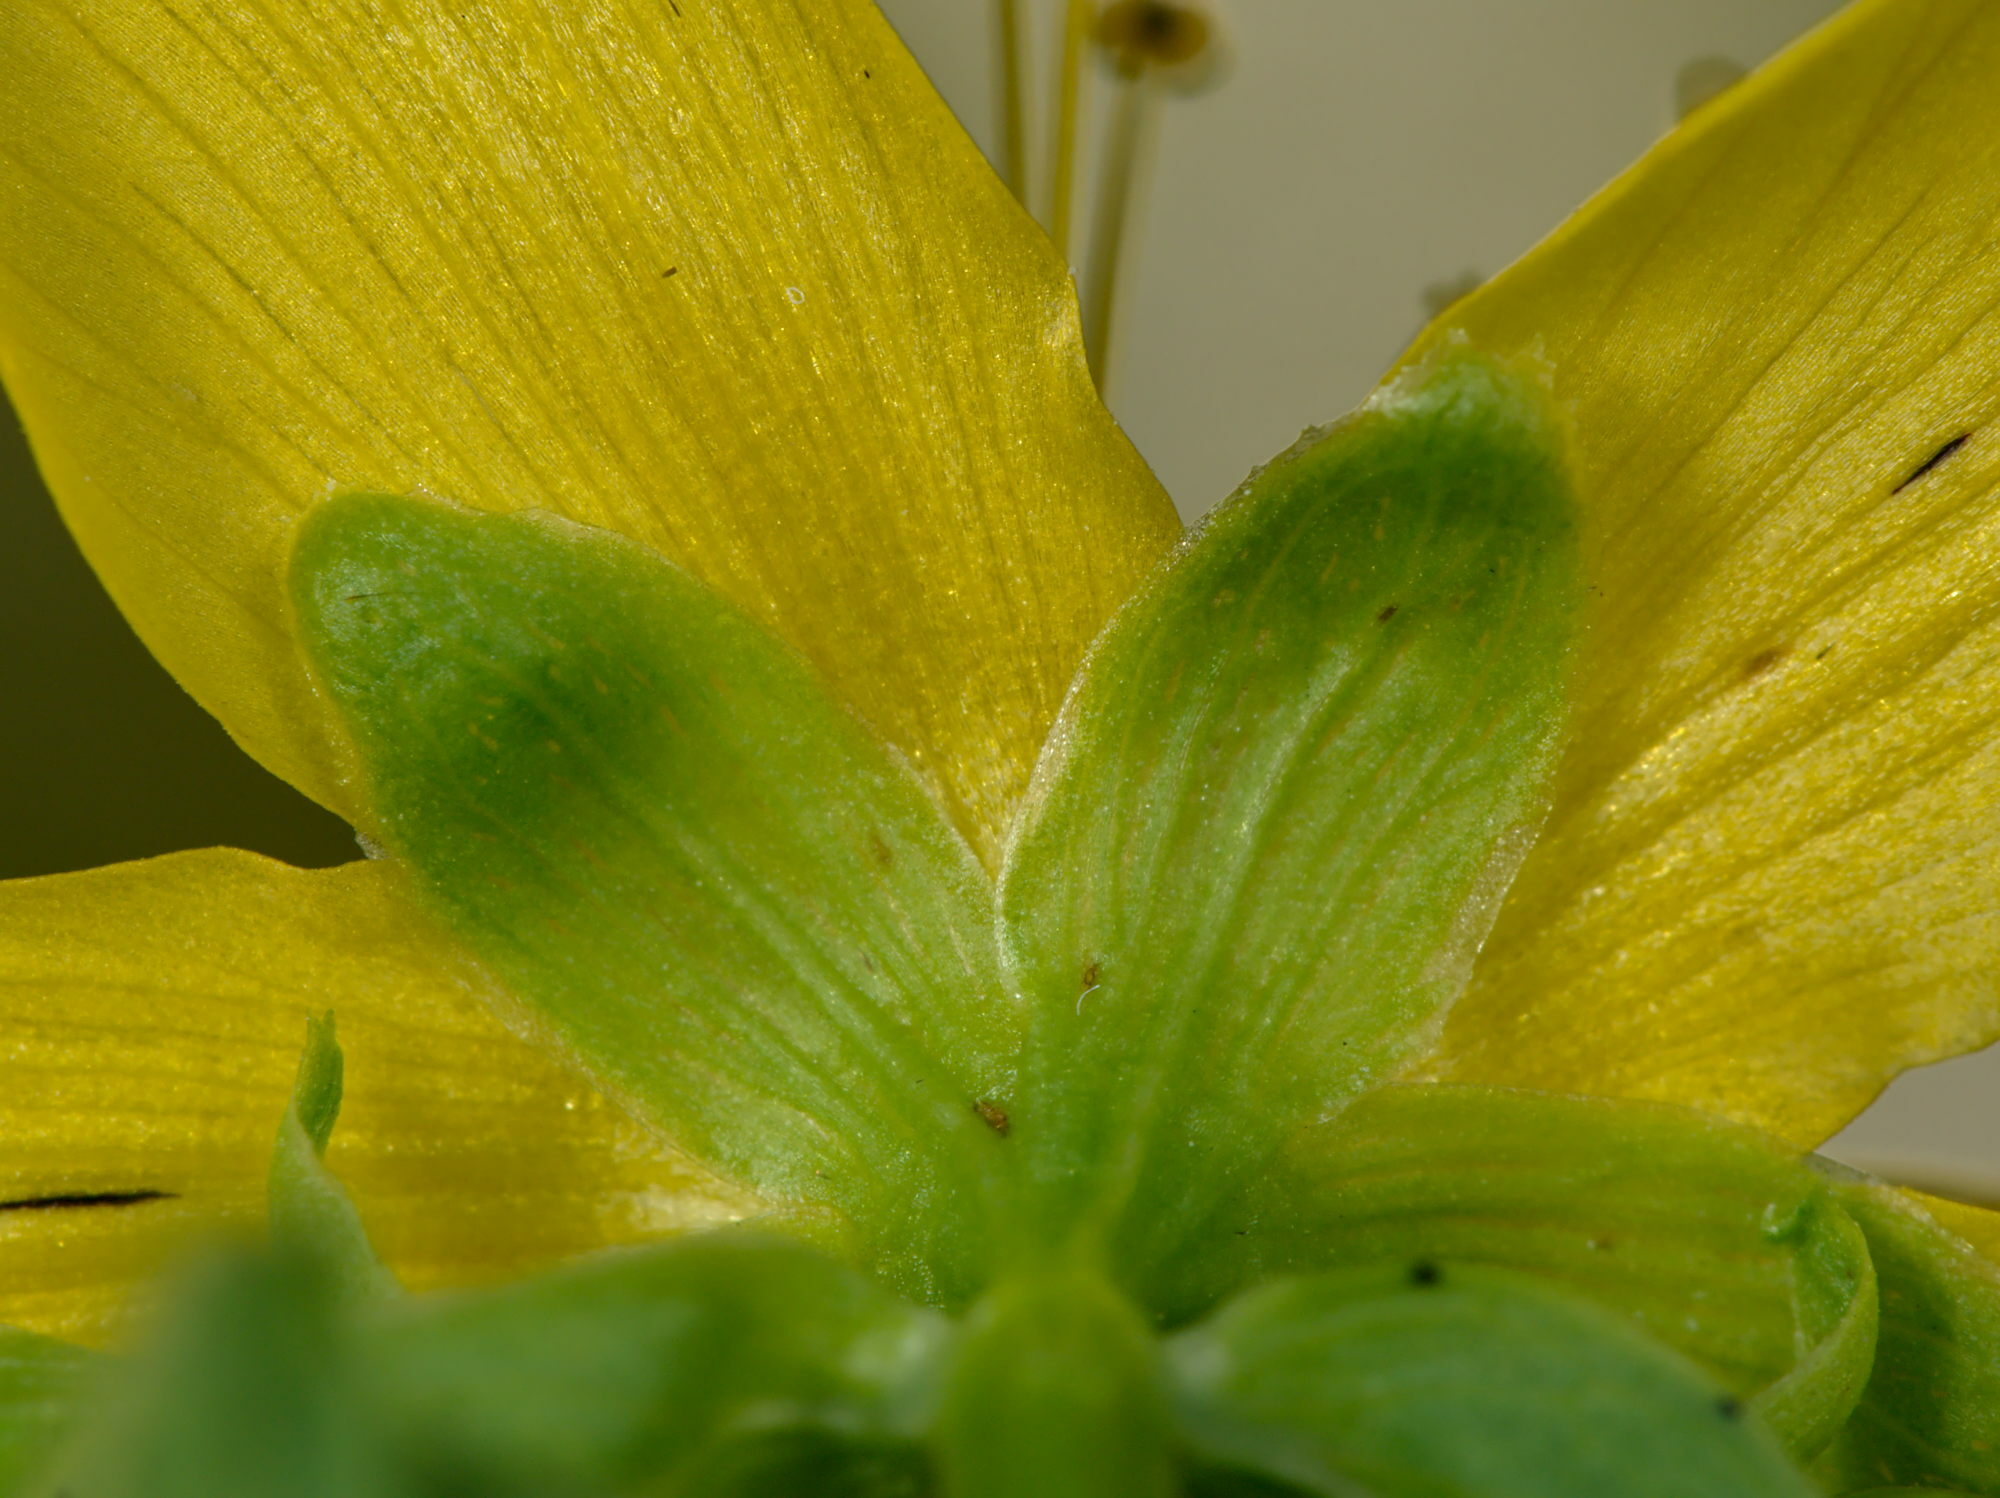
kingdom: Plantae
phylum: Tracheophyta
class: Magnoliopsida
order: Malpighiales
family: Hypericaceae
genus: Hypericum
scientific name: Hypericum dubium
